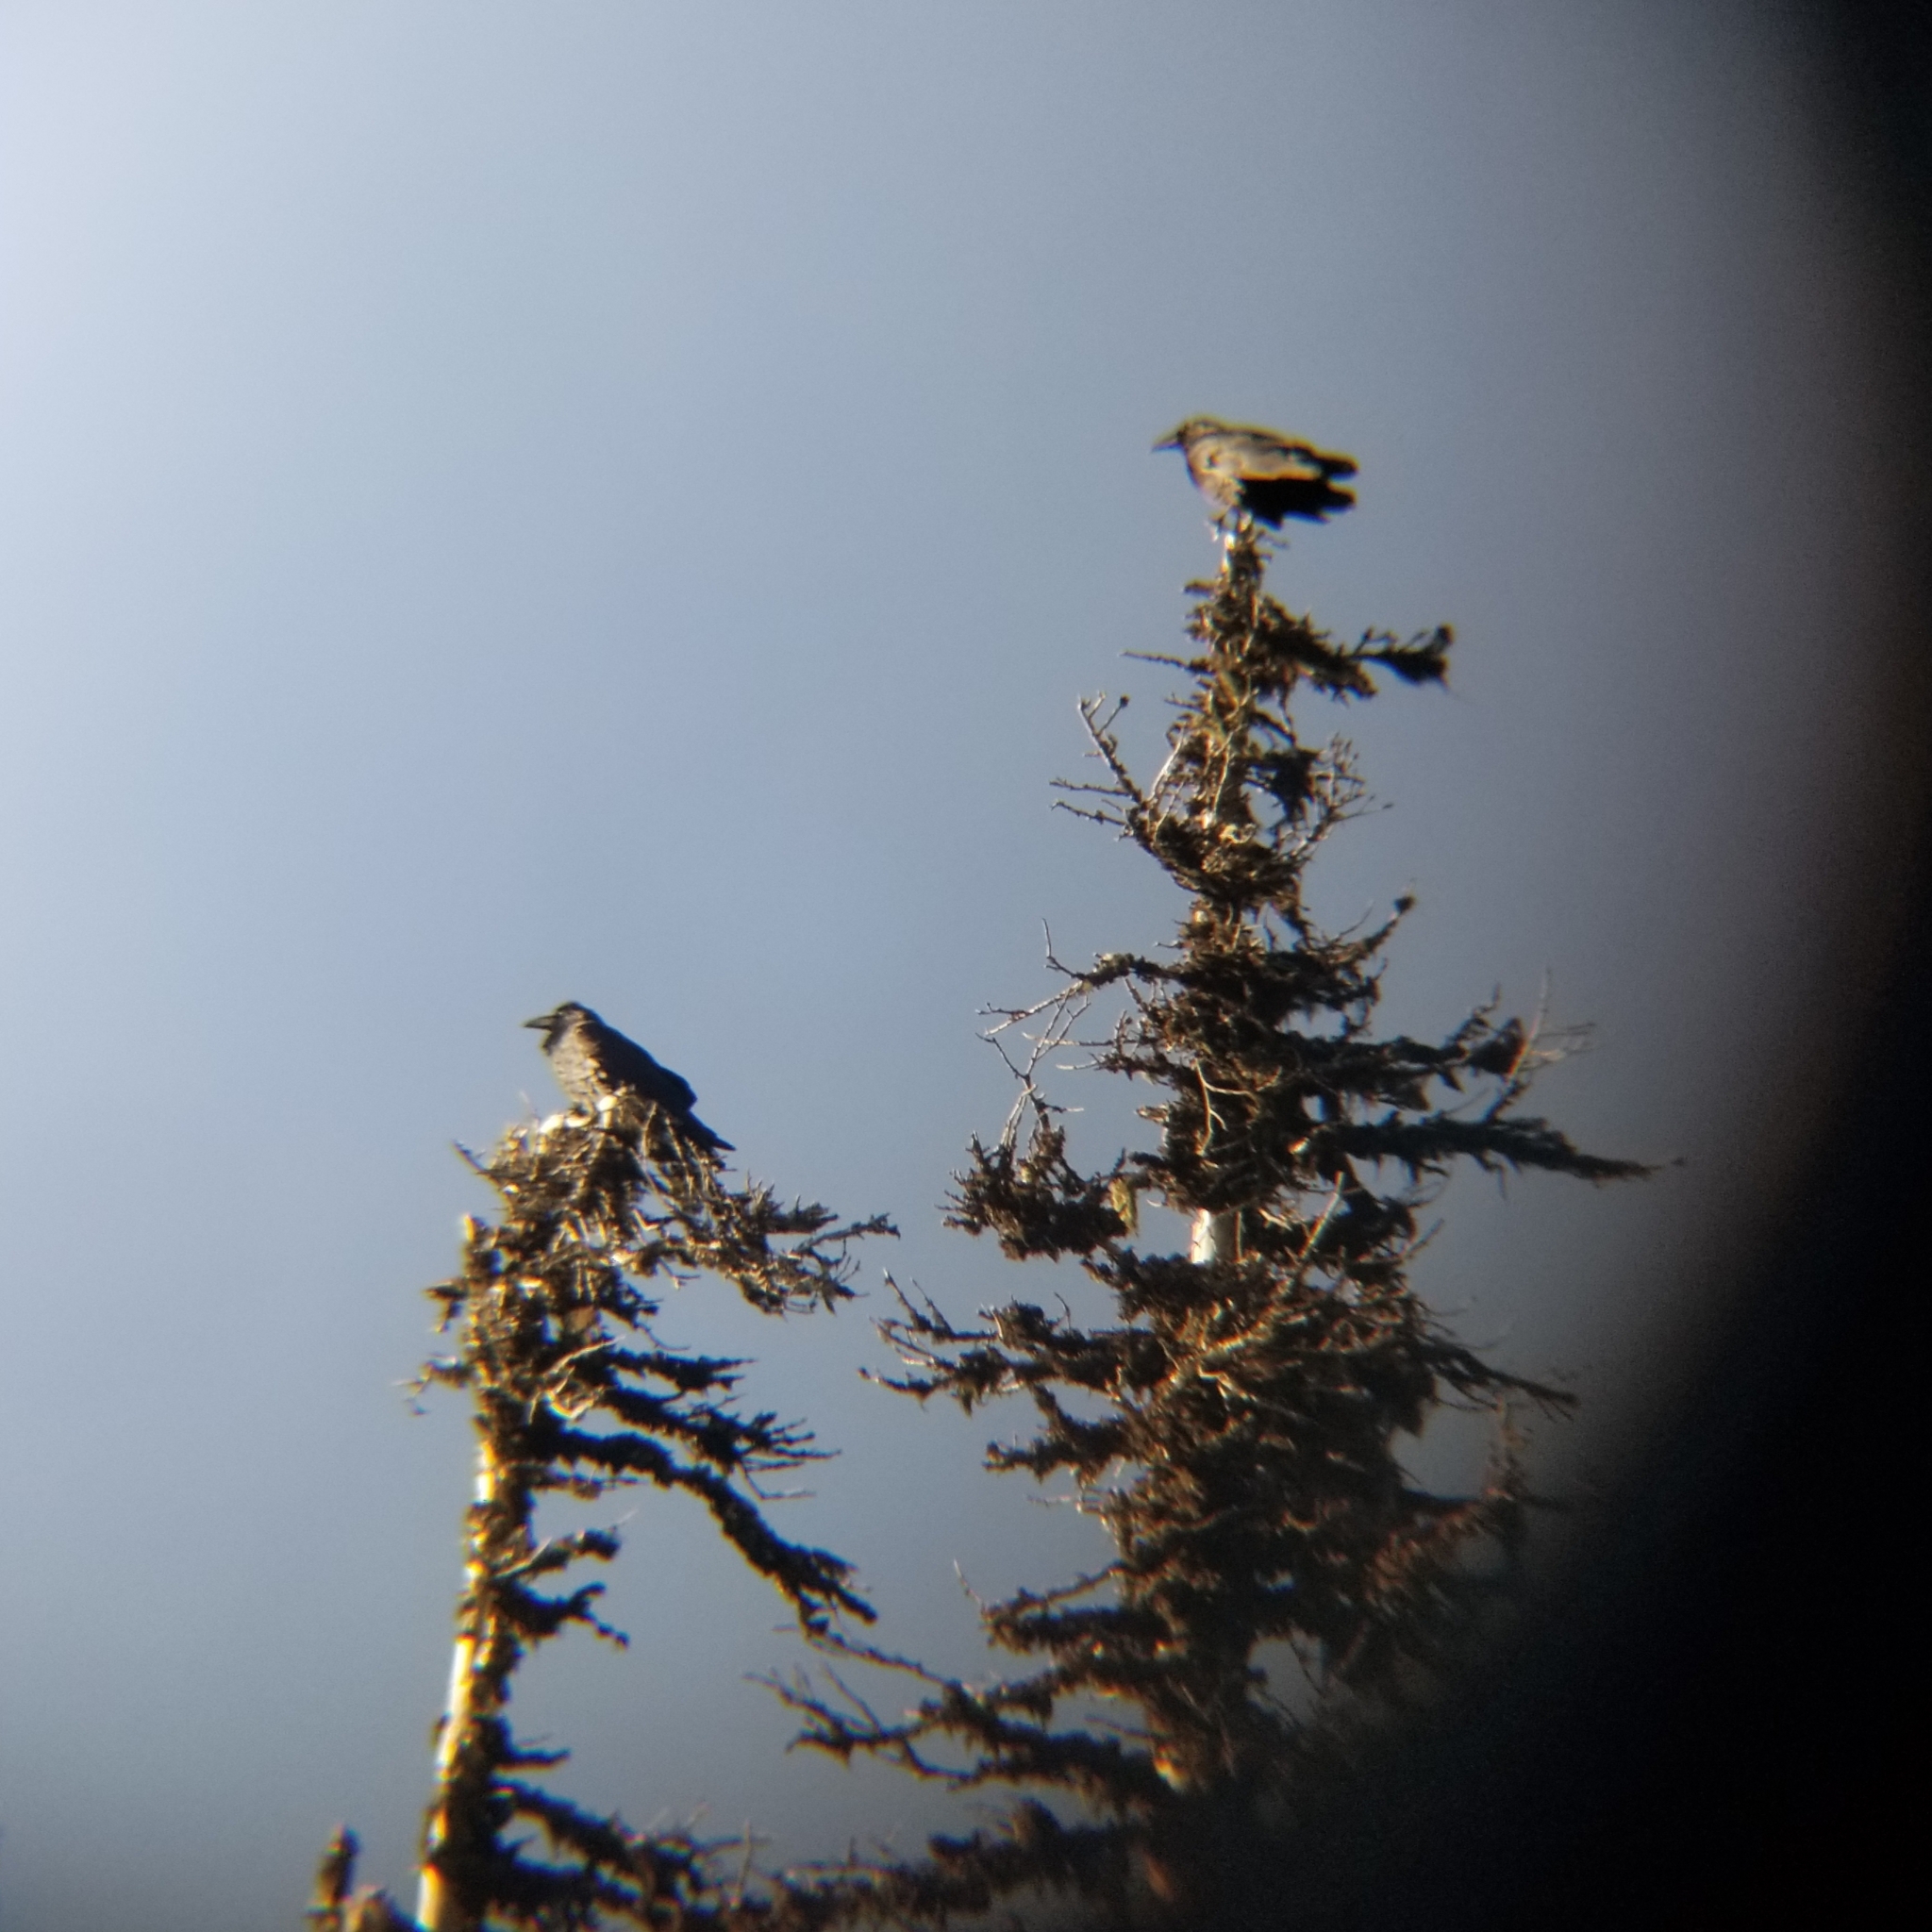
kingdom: Animalia
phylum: Chordata
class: Aves
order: Passeriformes
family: Corvidae
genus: Corvus
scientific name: Corvus corax
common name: Common raven
